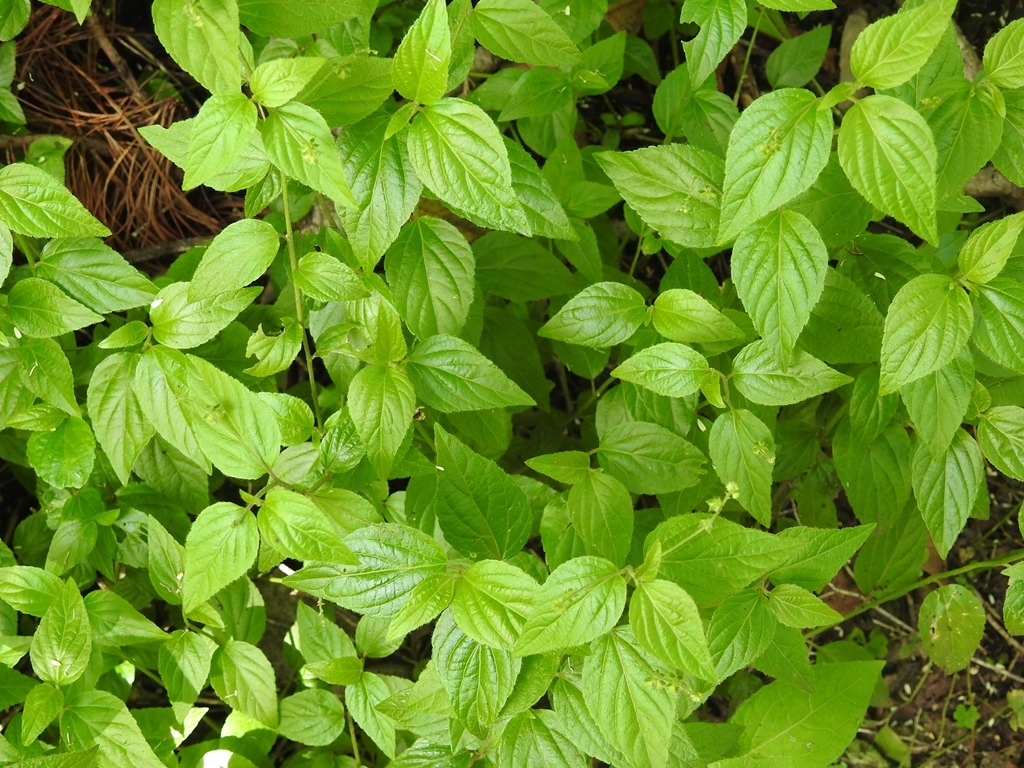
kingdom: Plantae
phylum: Tracheophyta
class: Magnoliopsida
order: Malpighiales
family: Euphorbiaceae
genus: Caperonia
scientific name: Caperonia palustris
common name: Sacatrapo
